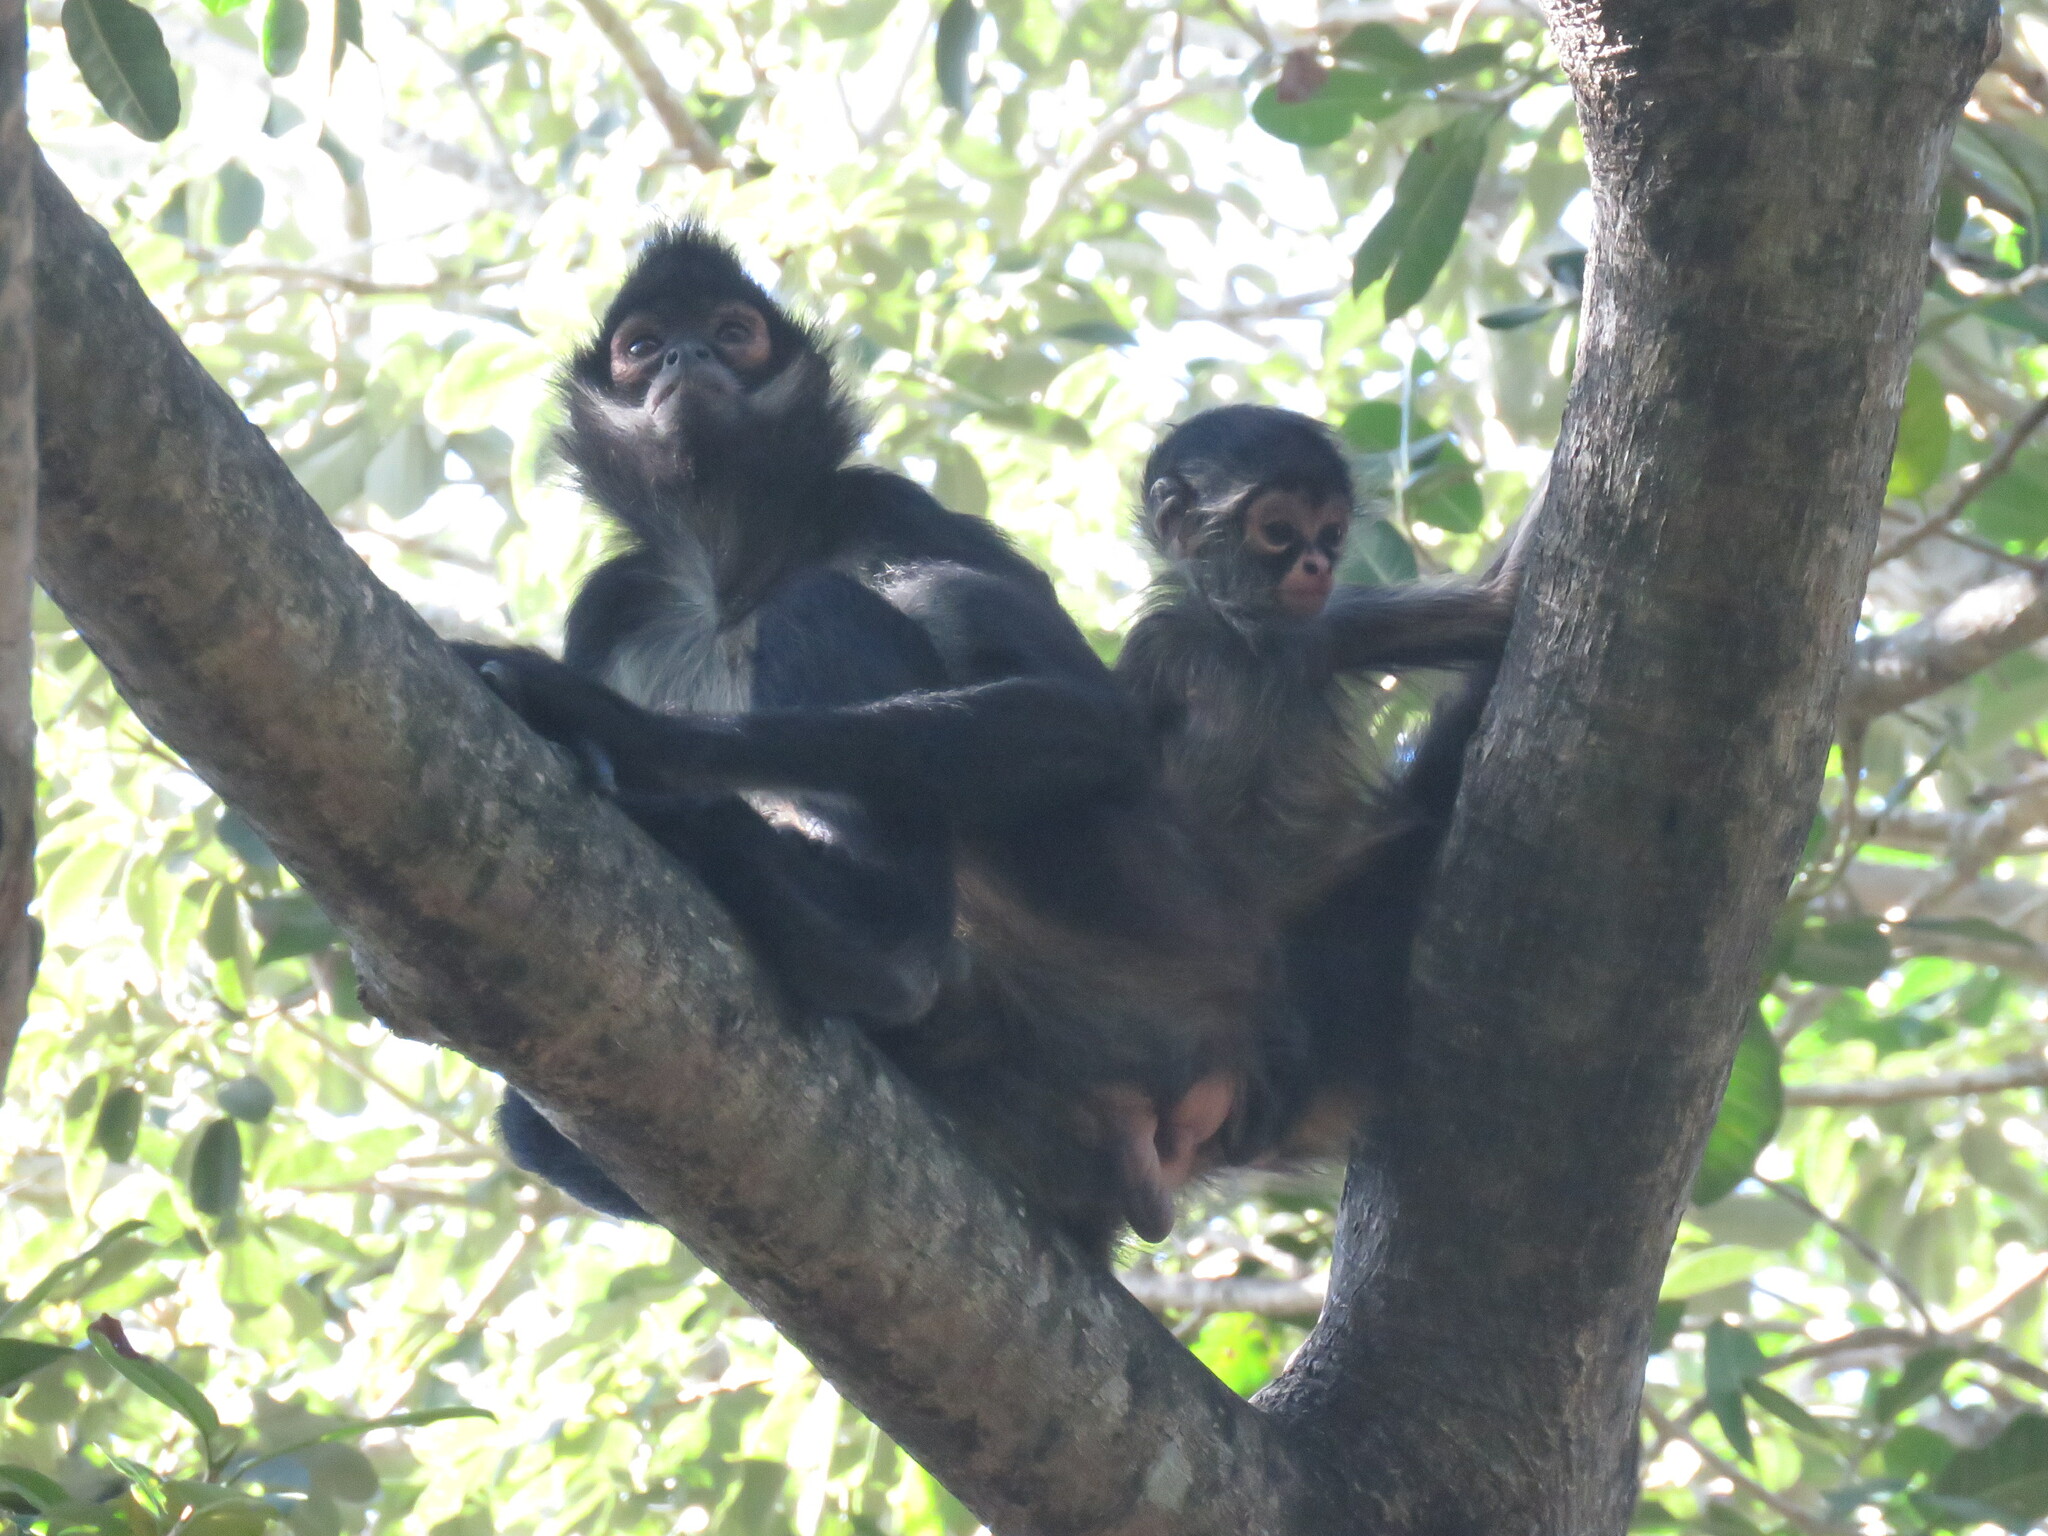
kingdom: Animalia
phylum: Chordata
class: Mammalia
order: Primates
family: Atelidae
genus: Ateles
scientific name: Ateles geoffroyi
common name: Black-handed spider monkey
